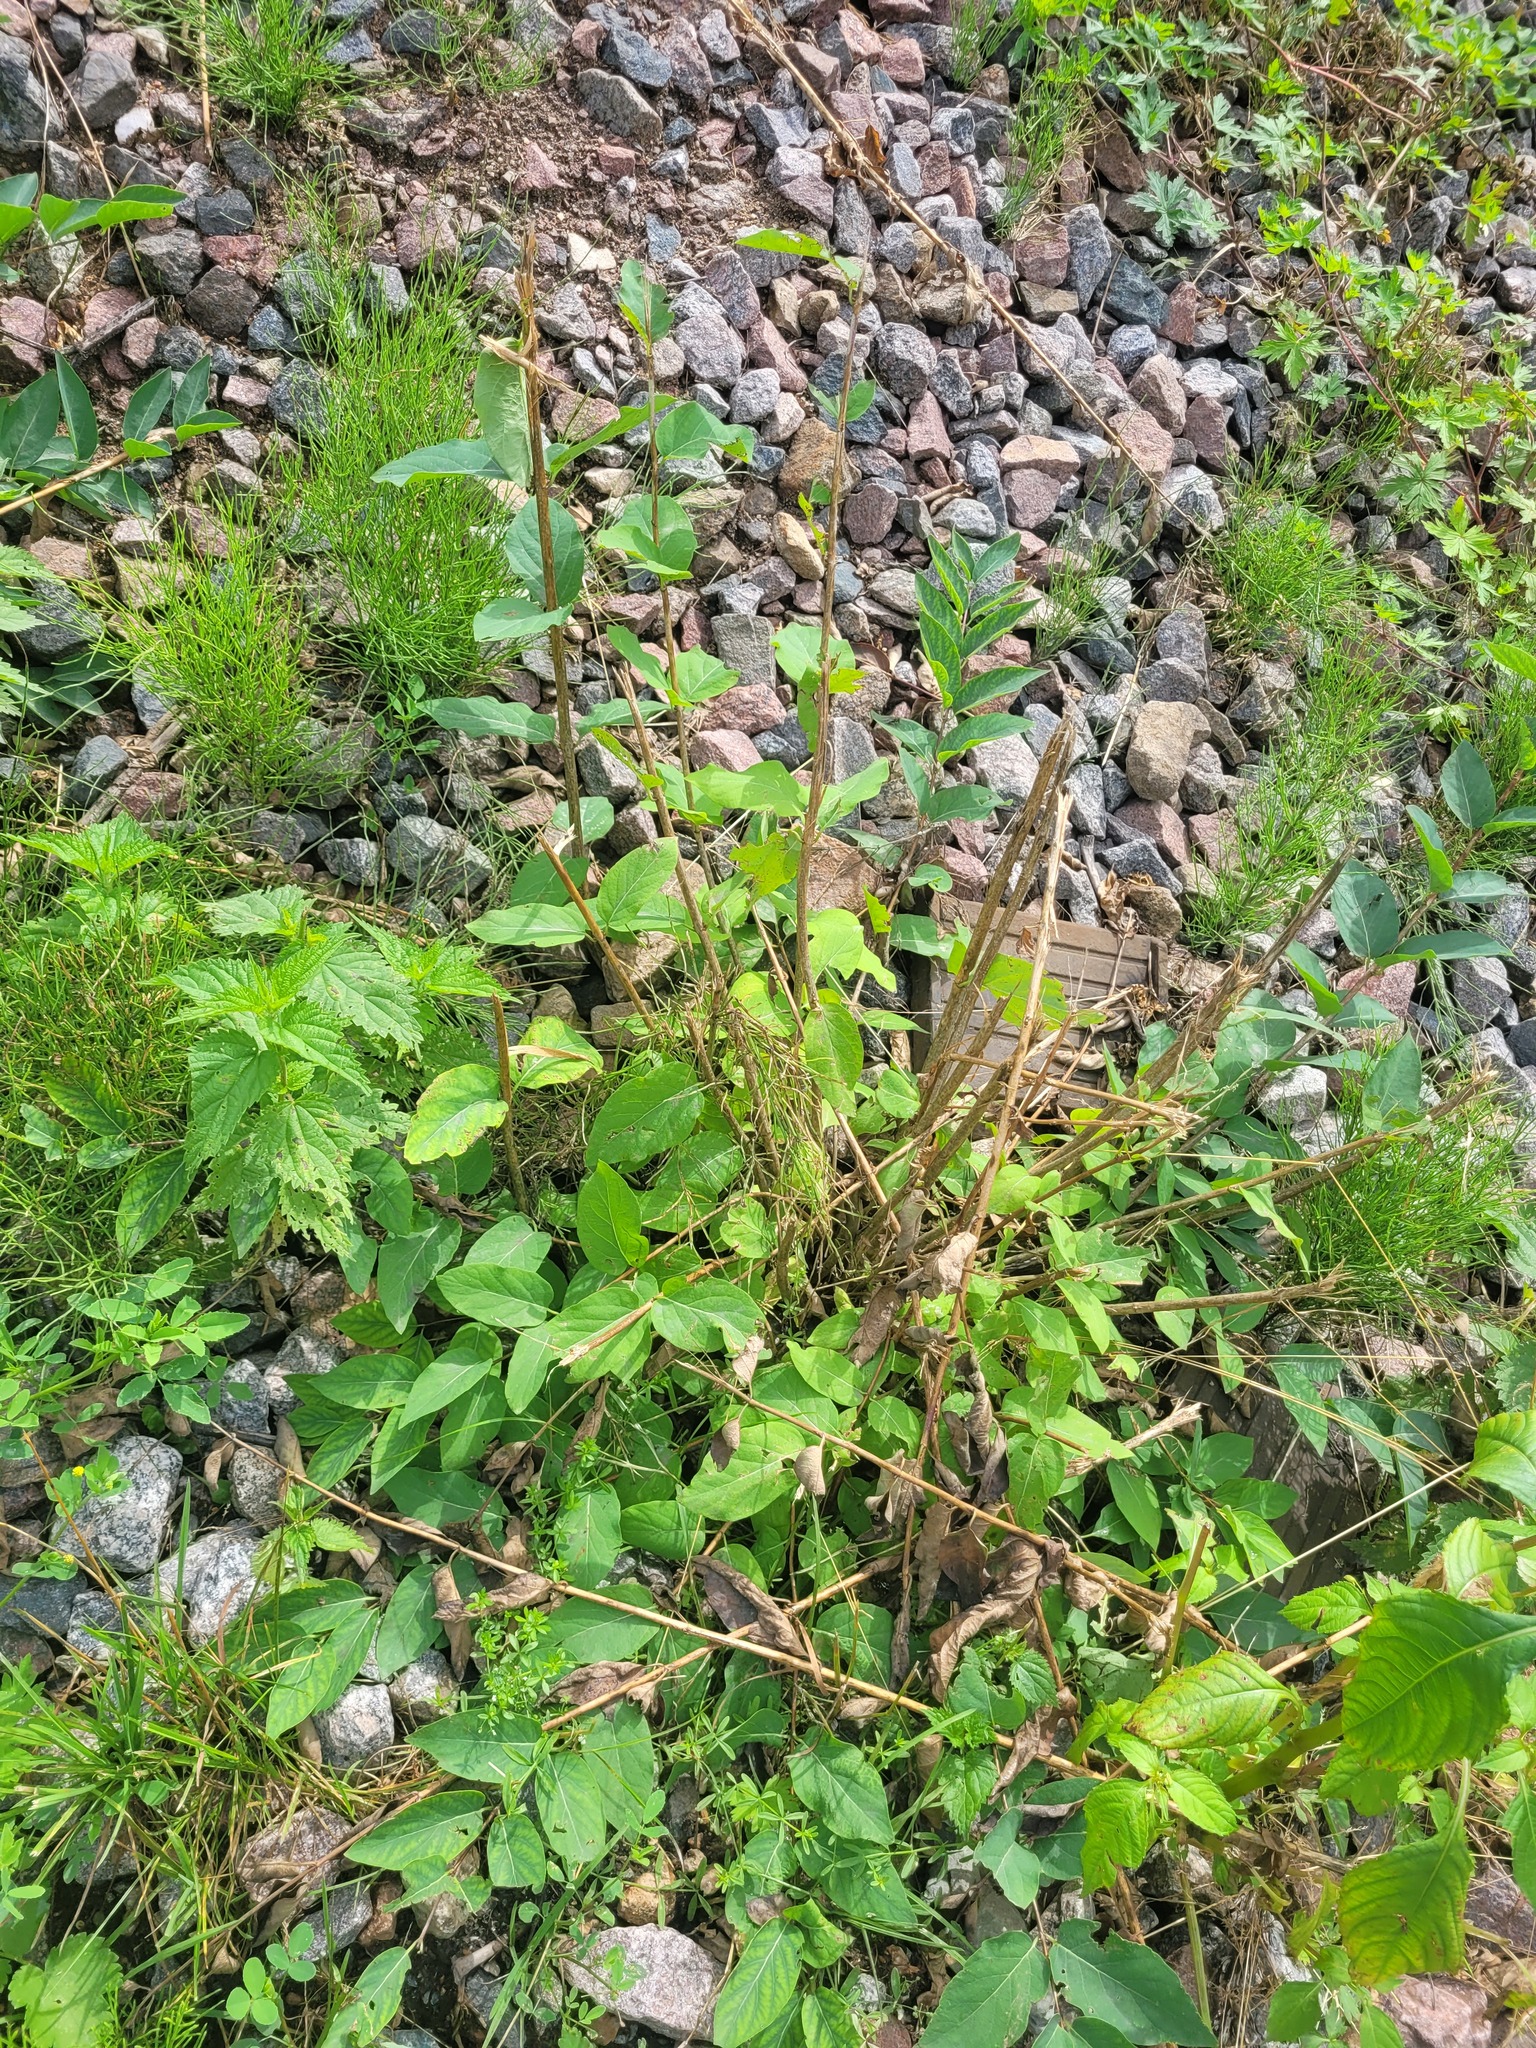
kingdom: Plantae
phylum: Tracheophyta
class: Magnoliopsida
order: Dipsacales
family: Caprifoliaceae
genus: Lonicera
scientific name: Lonicera tatarica
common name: Tatarian honeysuckle
